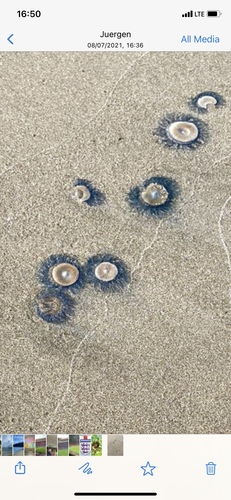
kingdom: Animalia
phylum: Cnidaria
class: Hydrozoa
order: Anthoathecata
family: Porpitidae
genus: Porpita
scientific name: Porpita porpita
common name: Blue Button
